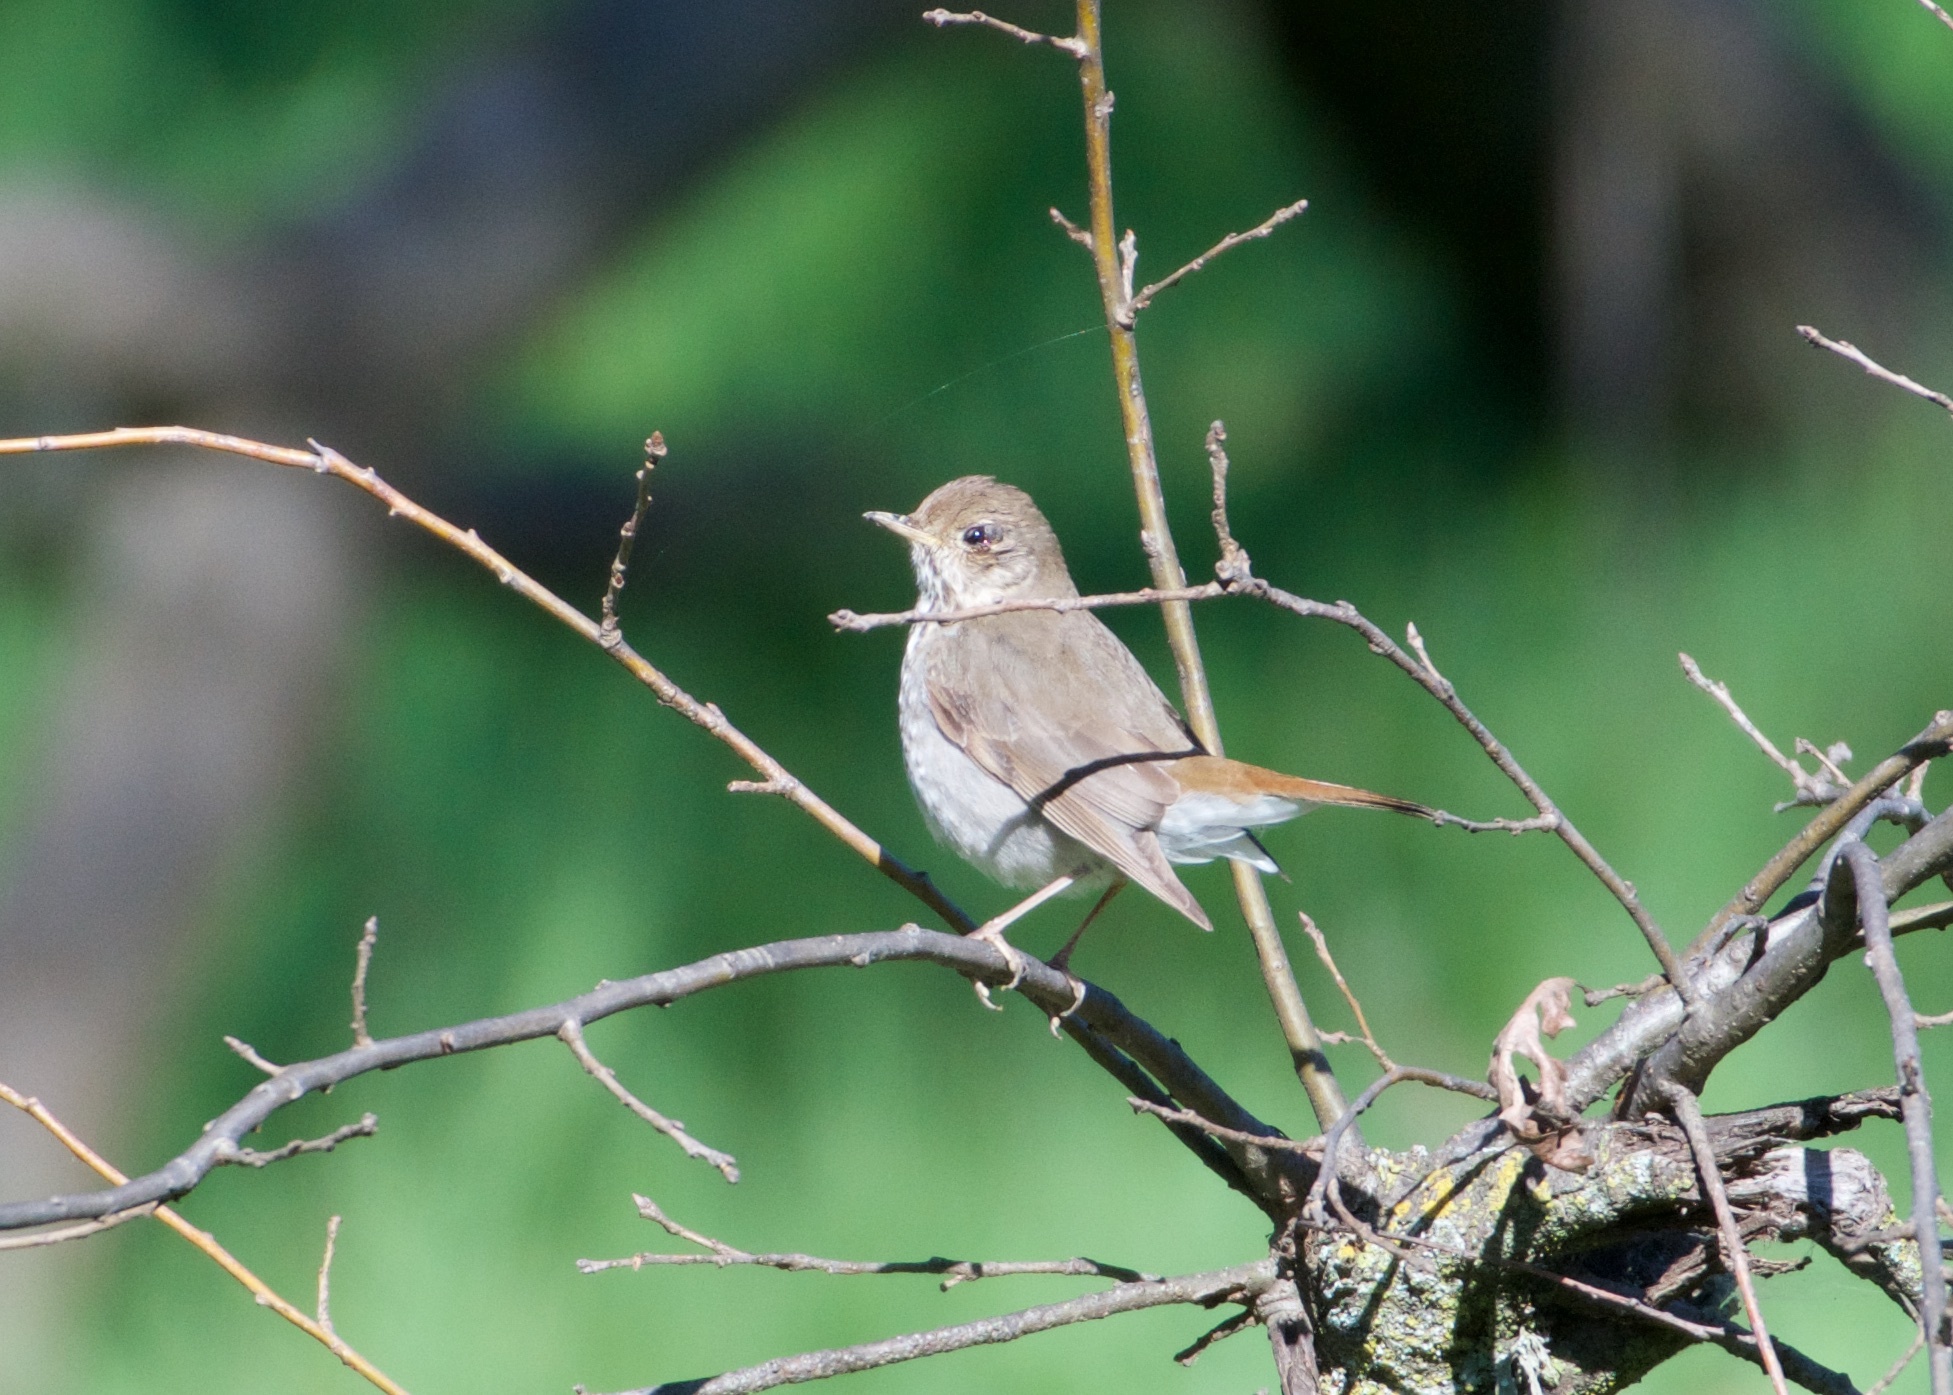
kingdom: Animalia
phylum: Chordata
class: Aves
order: Passeriformes
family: Turdidae
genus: Catharus
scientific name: Catharus guttatus
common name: Hermit thrush
